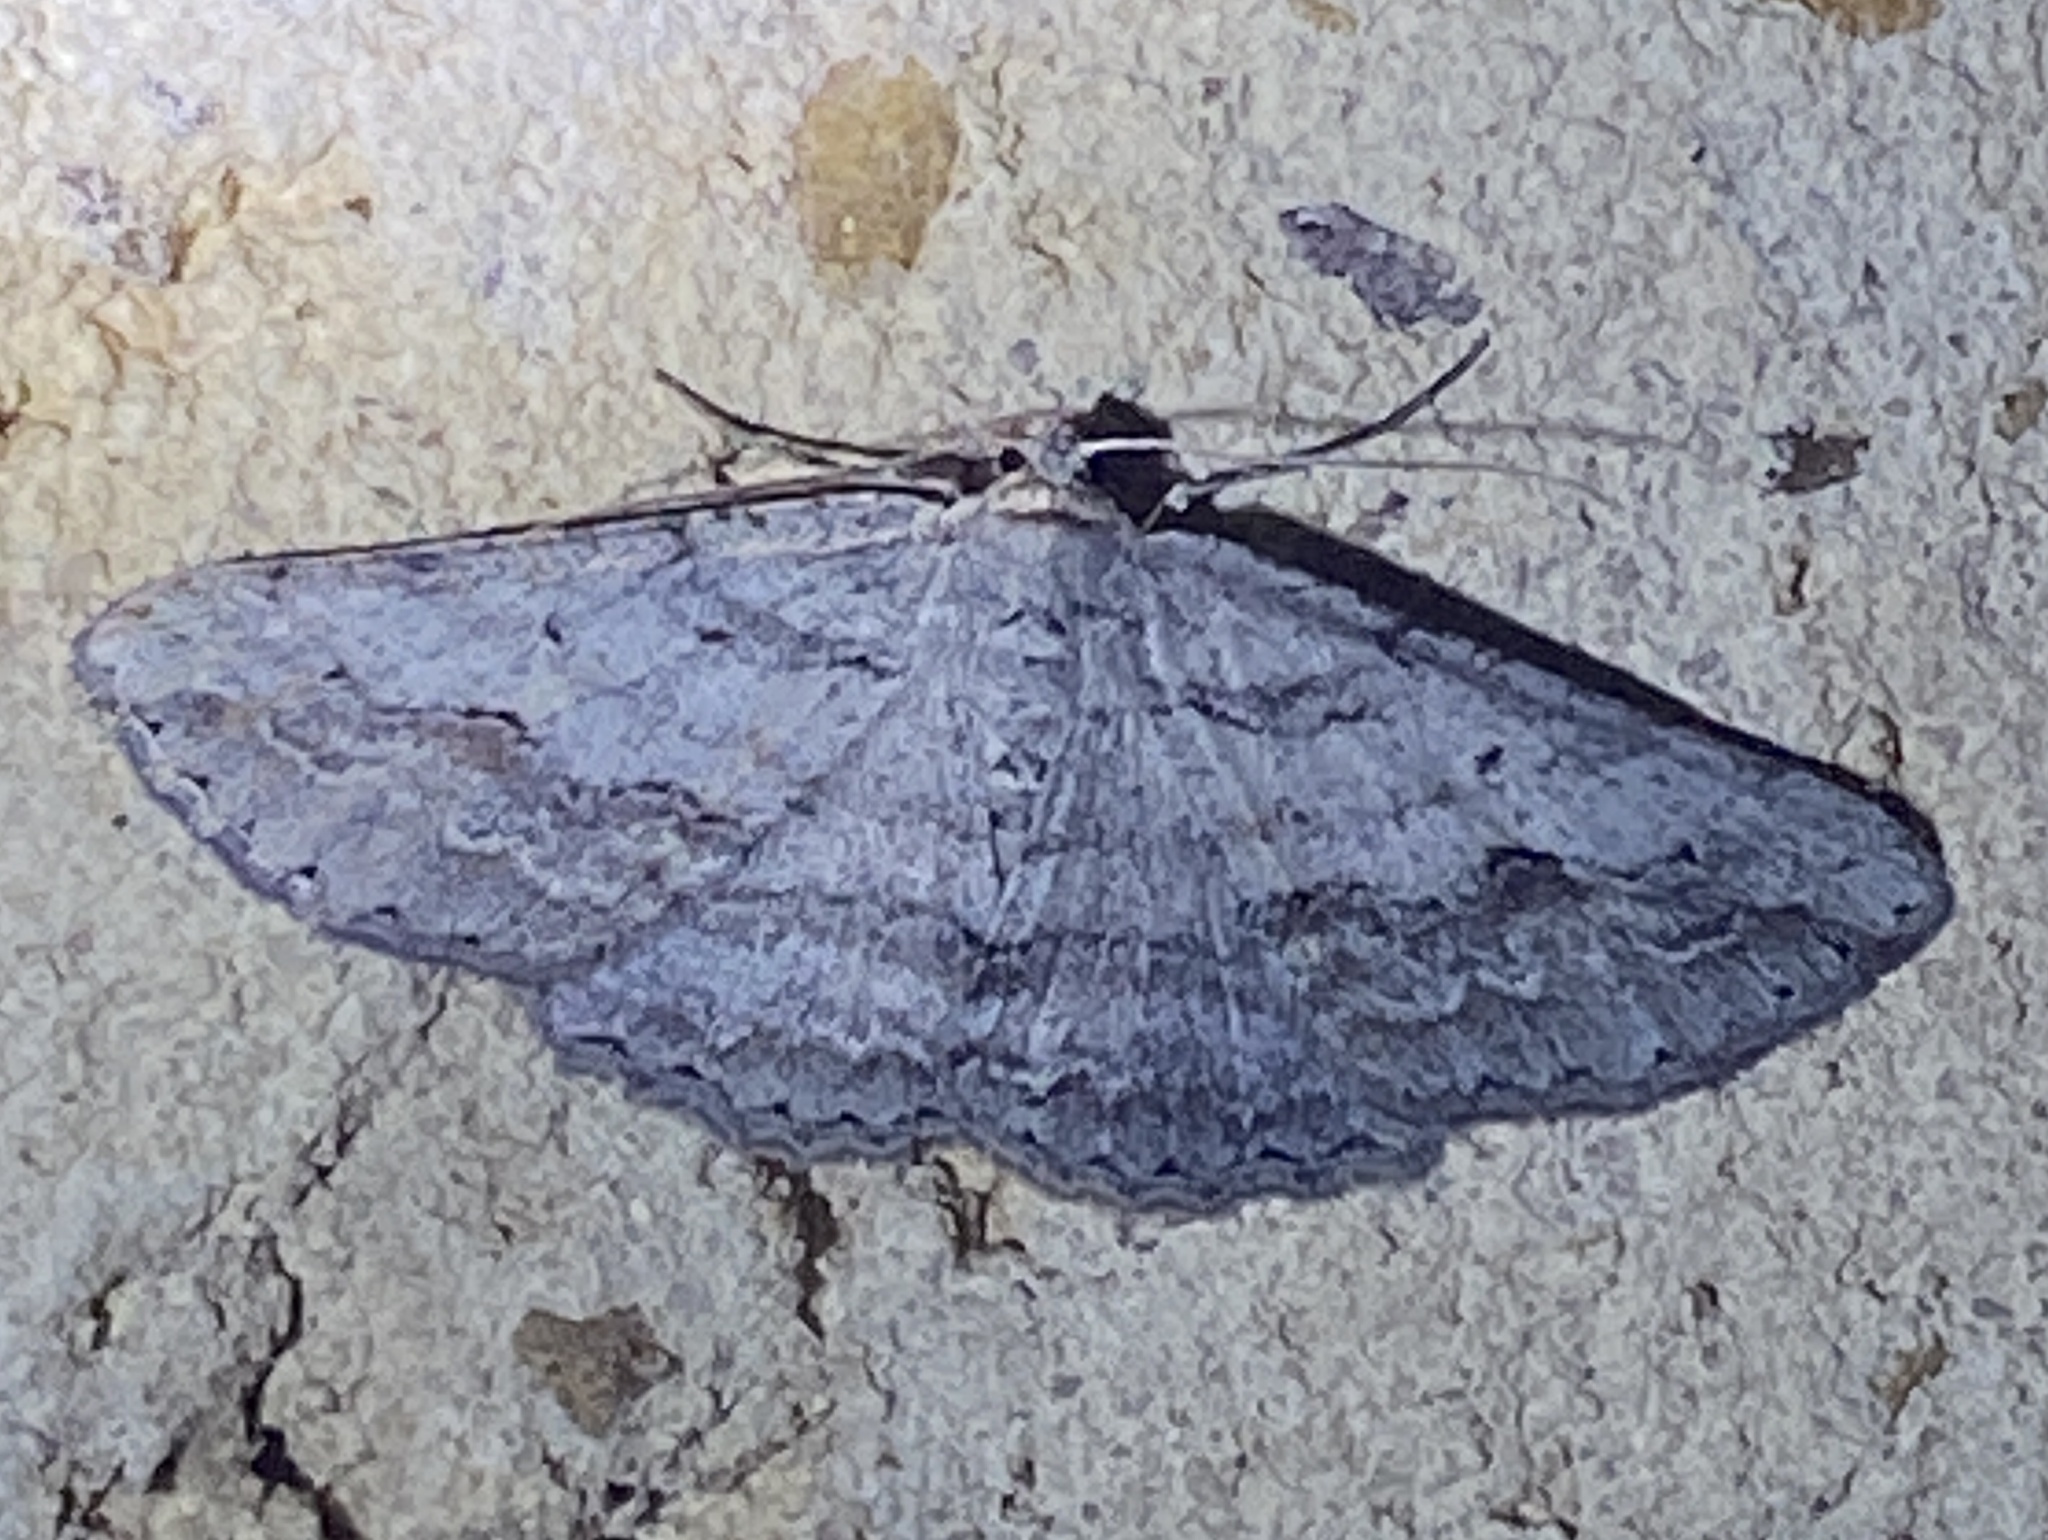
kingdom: Animalia
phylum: Arthropoda
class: Insecta
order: Lepidoptera
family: Geometridae
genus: Syneora
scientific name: Syneora mundifera
